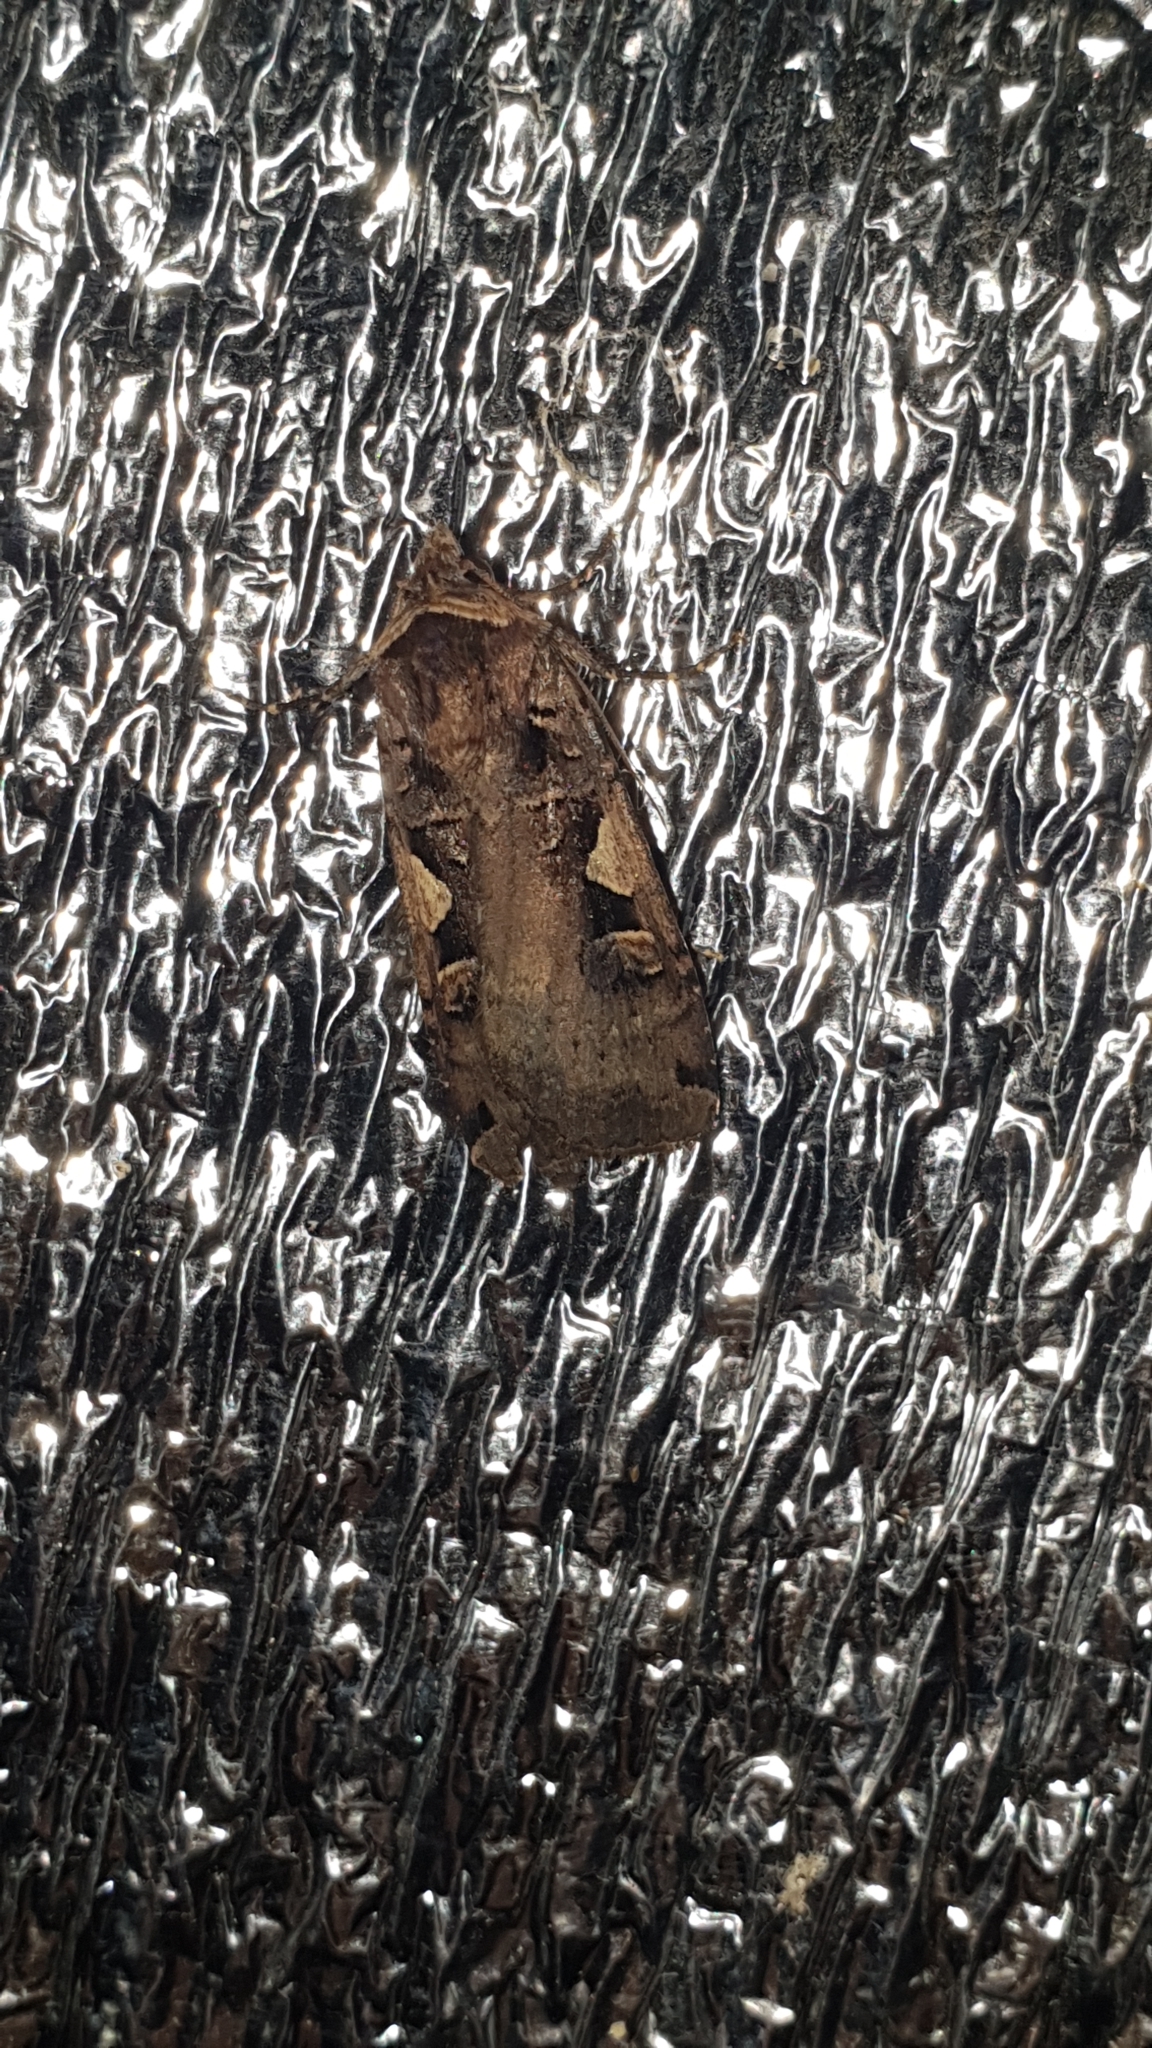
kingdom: Animalia
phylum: Arthropoda
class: Insecta
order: Lepidoptera
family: Noctuidae
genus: Xestia
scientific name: Xestia c-nigrum
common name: Setaceous hebrew character
